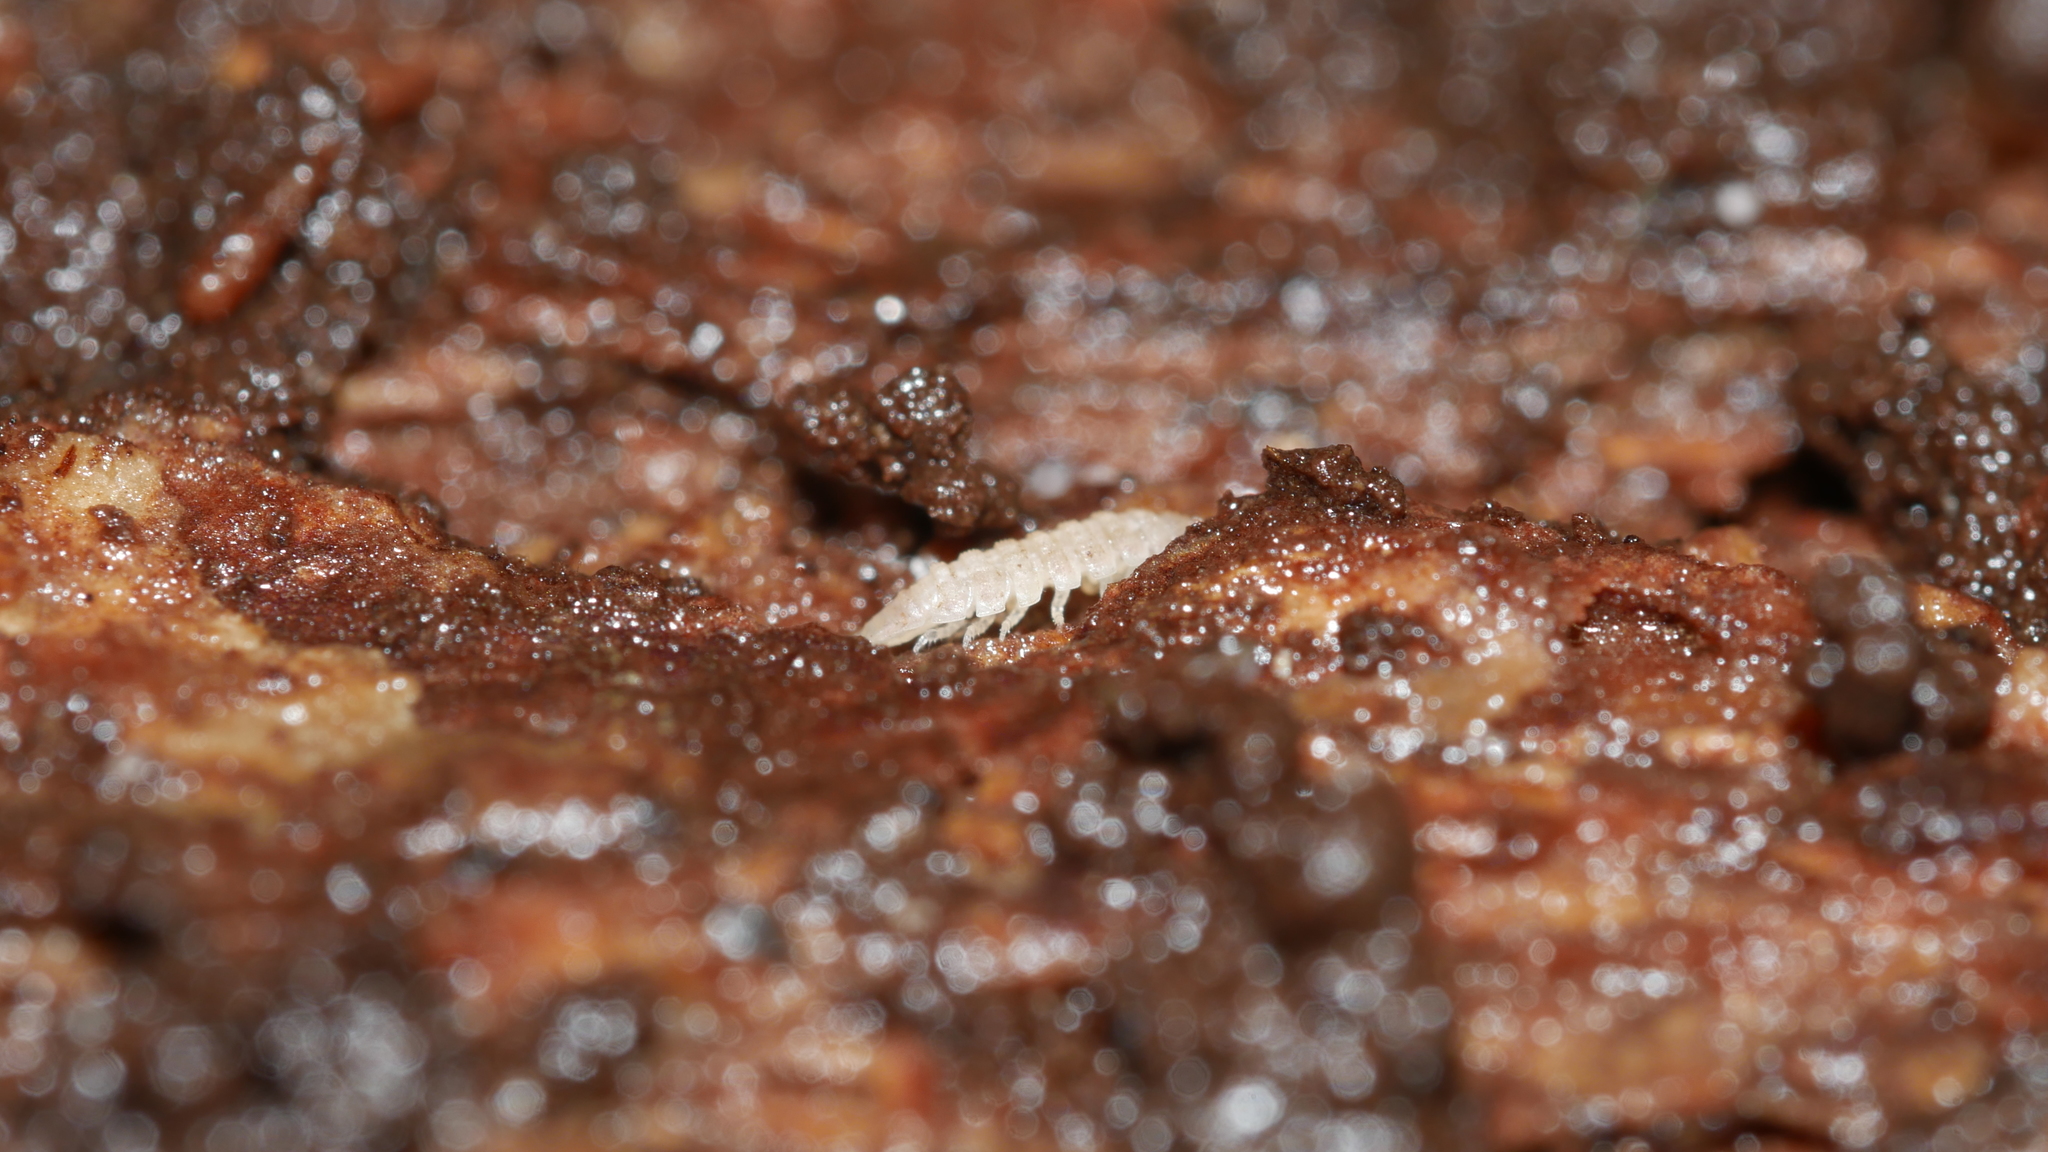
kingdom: Animalia
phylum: Arthropoda
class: Malacostraca
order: Isopoda
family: Trichoniscidae
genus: Haplophthalmus
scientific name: Haplophthalmus danicus
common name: Pillbug
